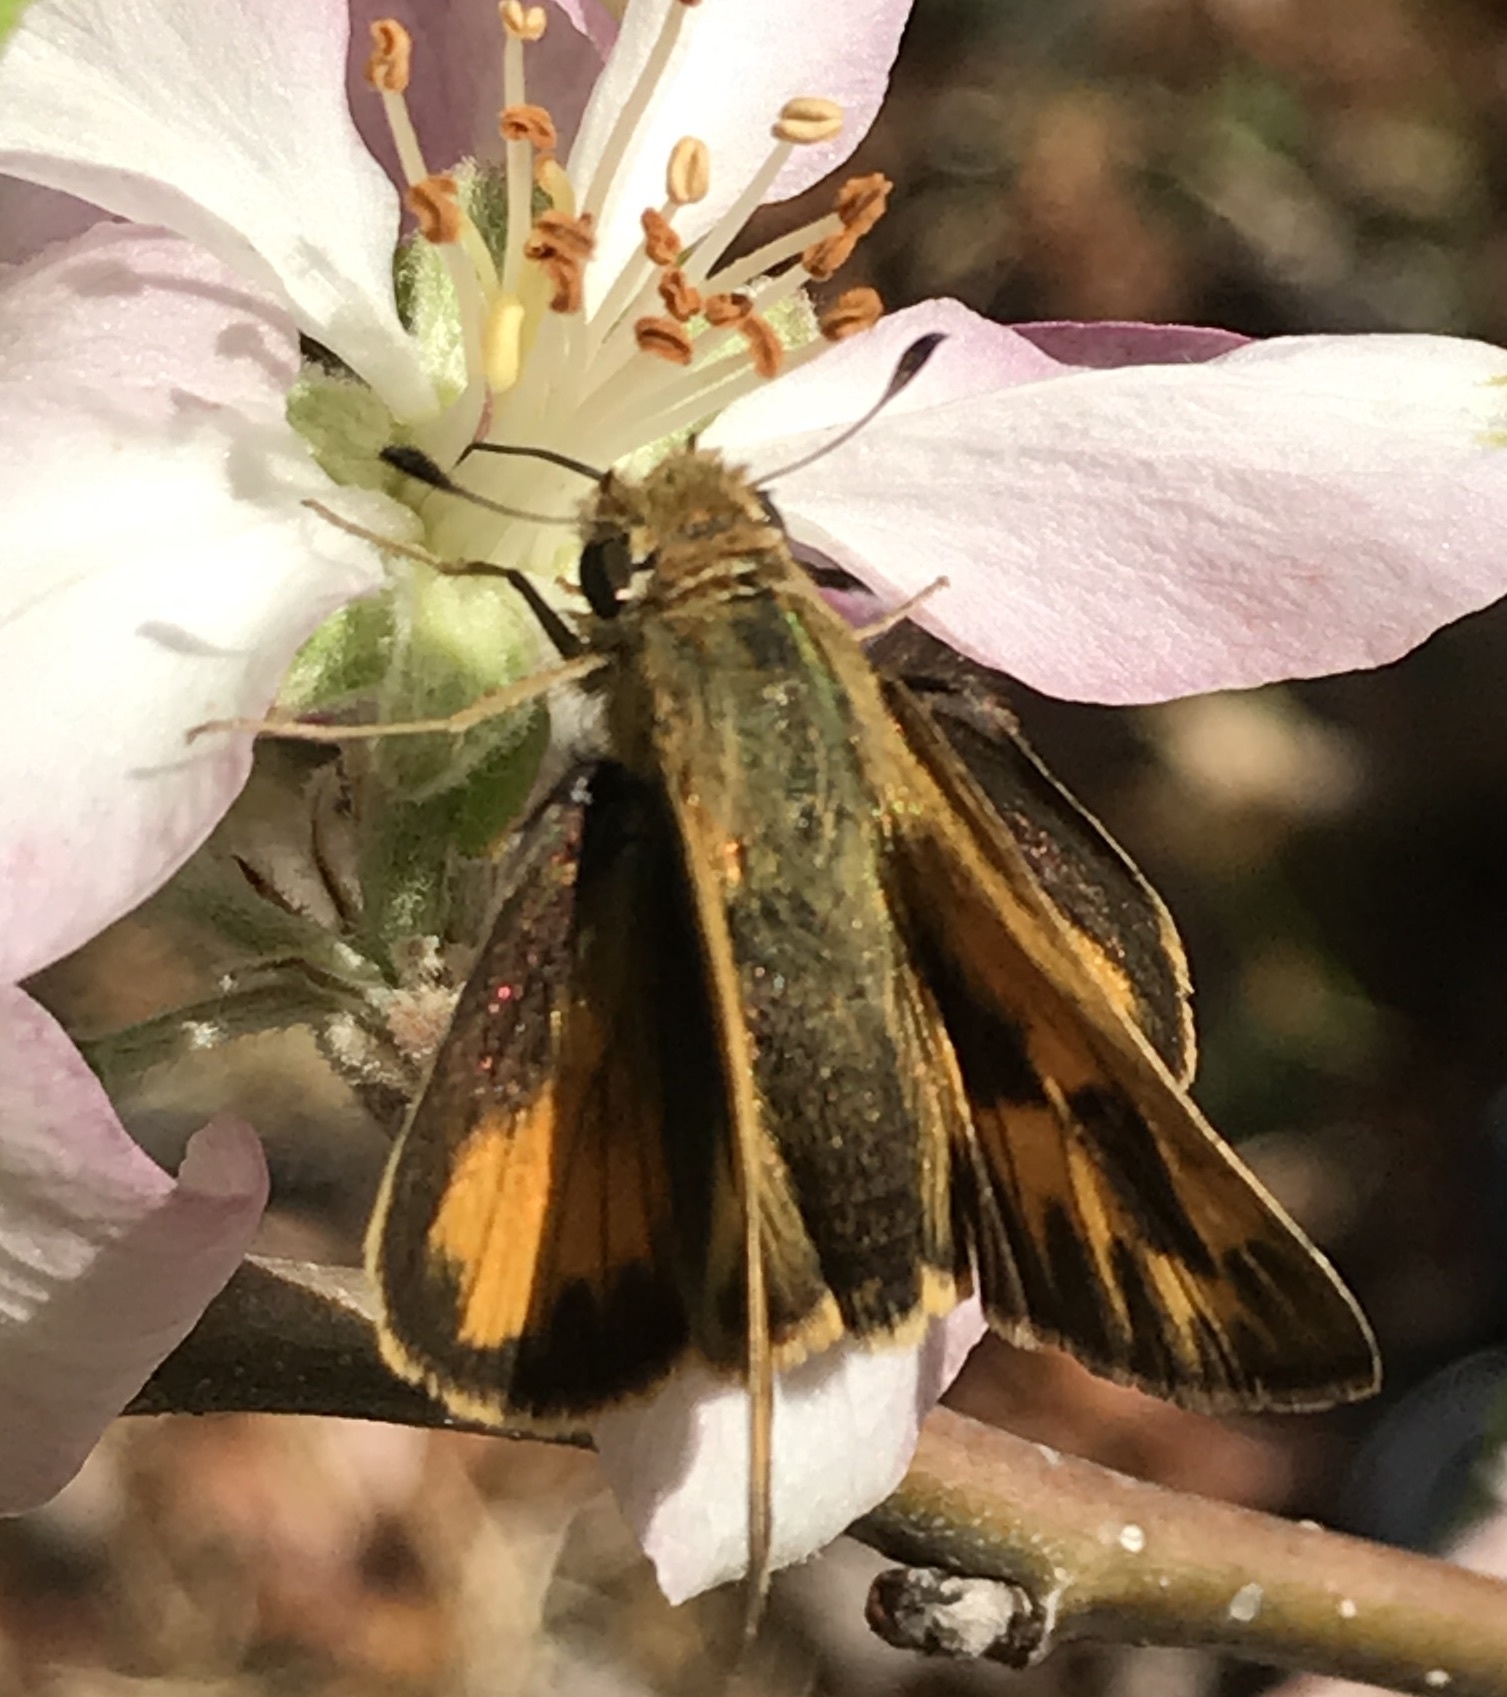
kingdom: Animalia
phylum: Arthropoda
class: Insecta
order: Lepidoptera
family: Hesperiidae
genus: Hylephila
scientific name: Hylephila phyleus
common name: Fiery skipper
